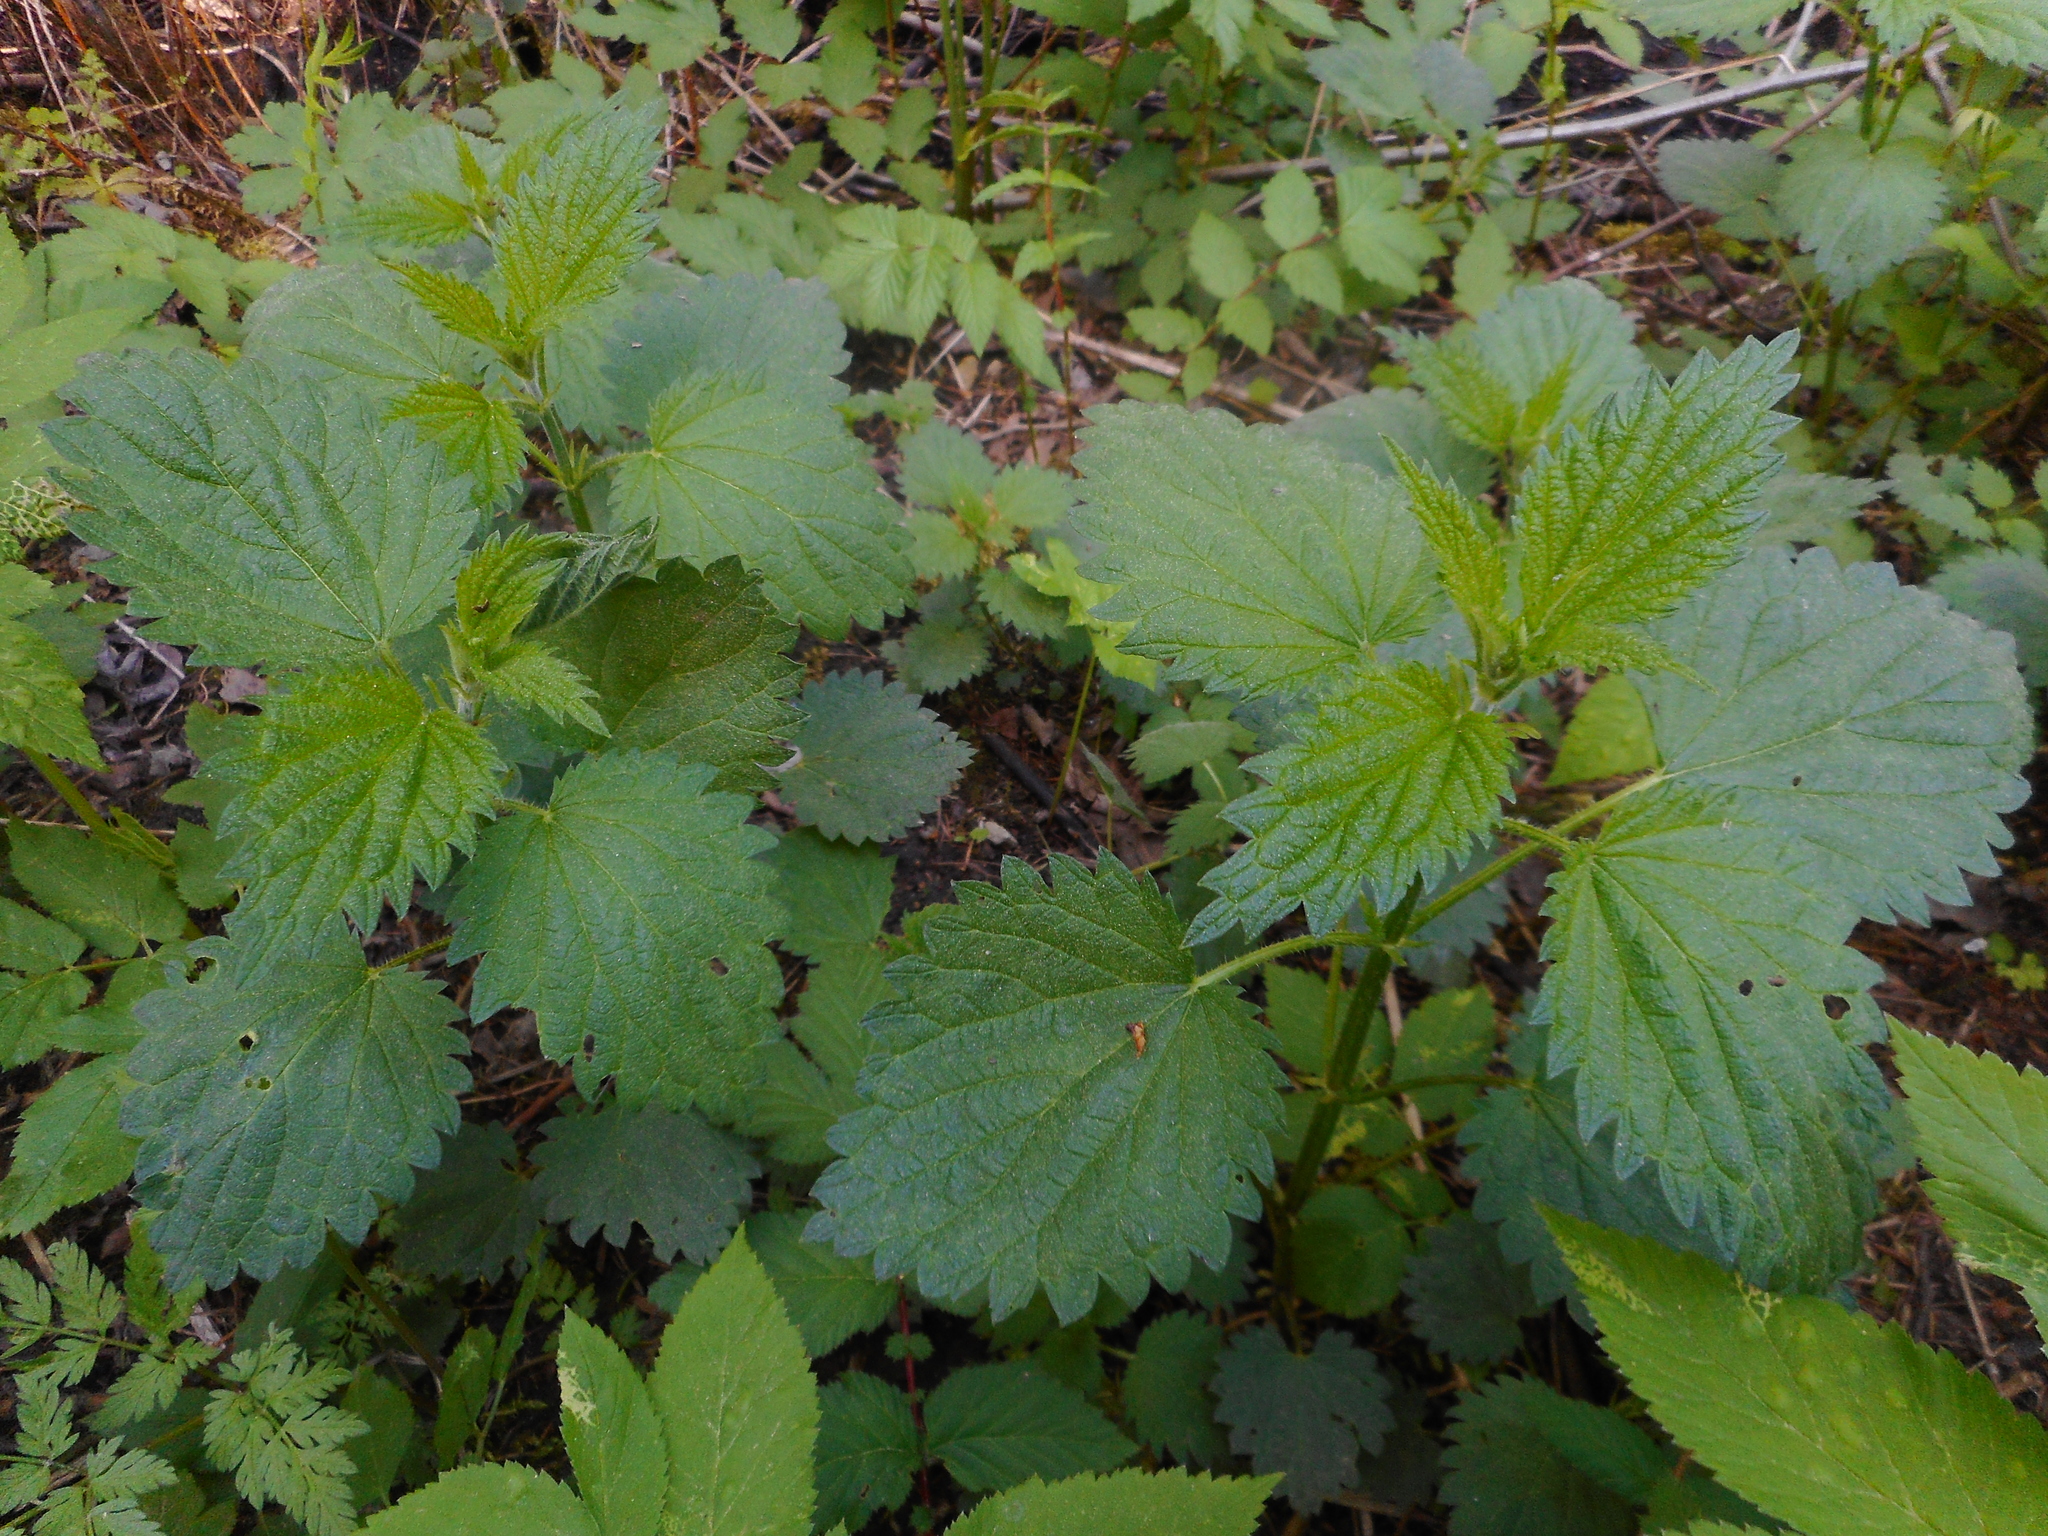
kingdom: Plantae
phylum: Tracheophyta
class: Magnoliopsida
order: Rosales
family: Urticaceae
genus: Urtica
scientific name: Urtica dioica
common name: Common nettle
